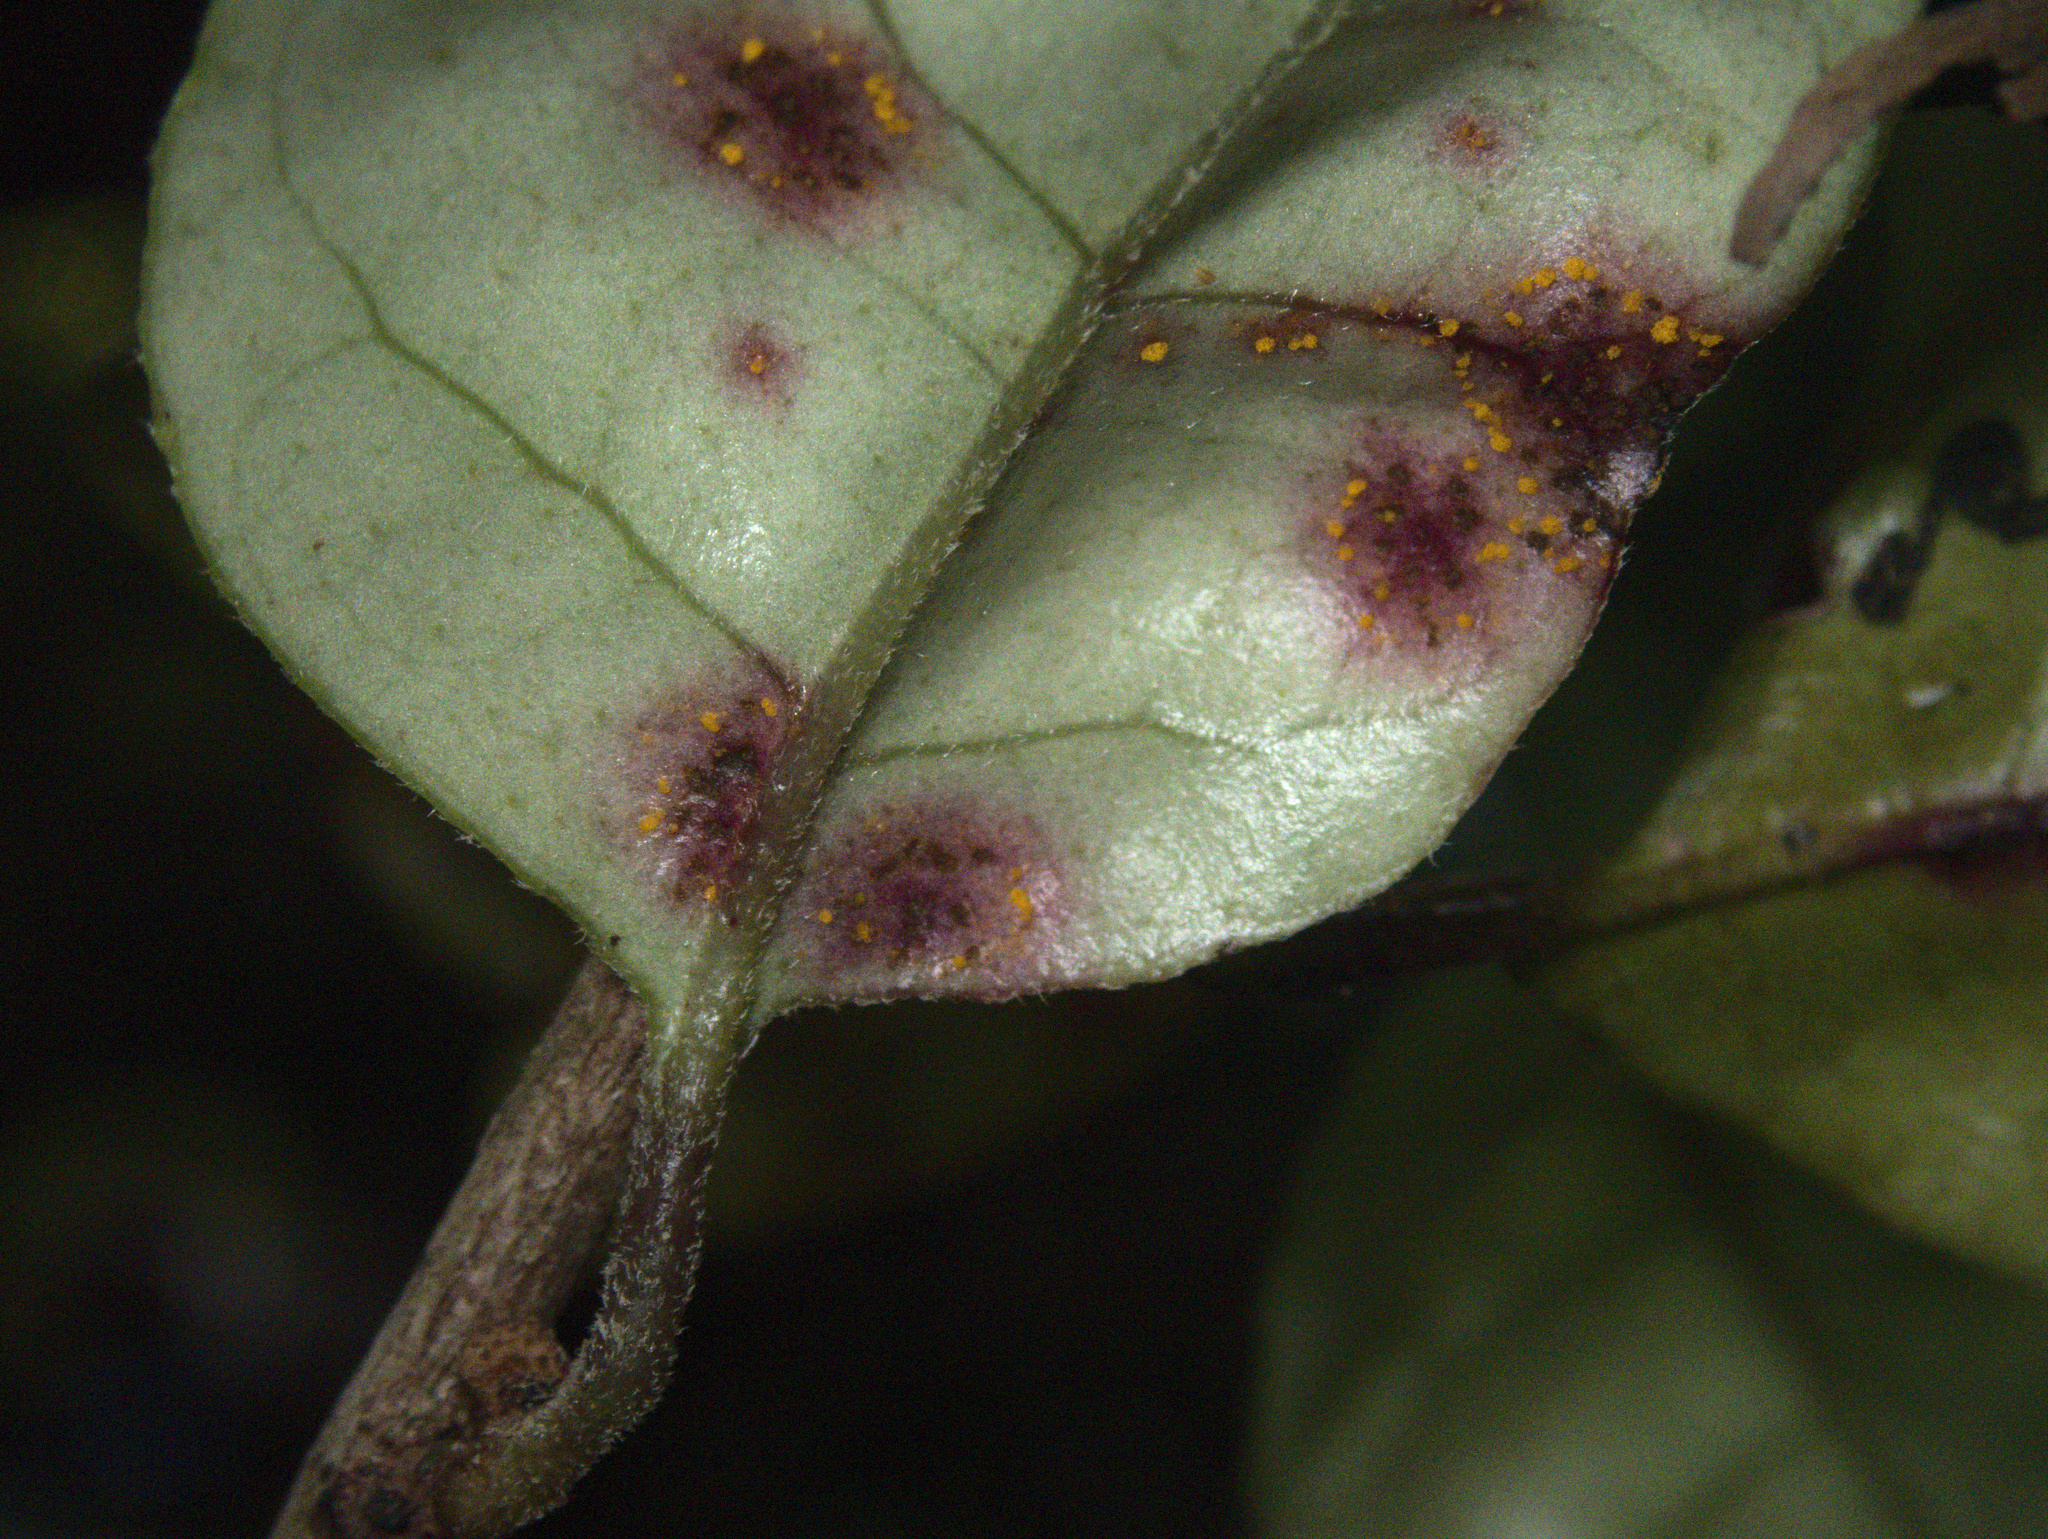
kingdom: Fungi
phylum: Basidiomycota
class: Pucciniomycetes
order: Pucciniales
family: Sphaerophragmiaceae
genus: Austropuccinia
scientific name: Austropuccinia psidii
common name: Myrtle rust
